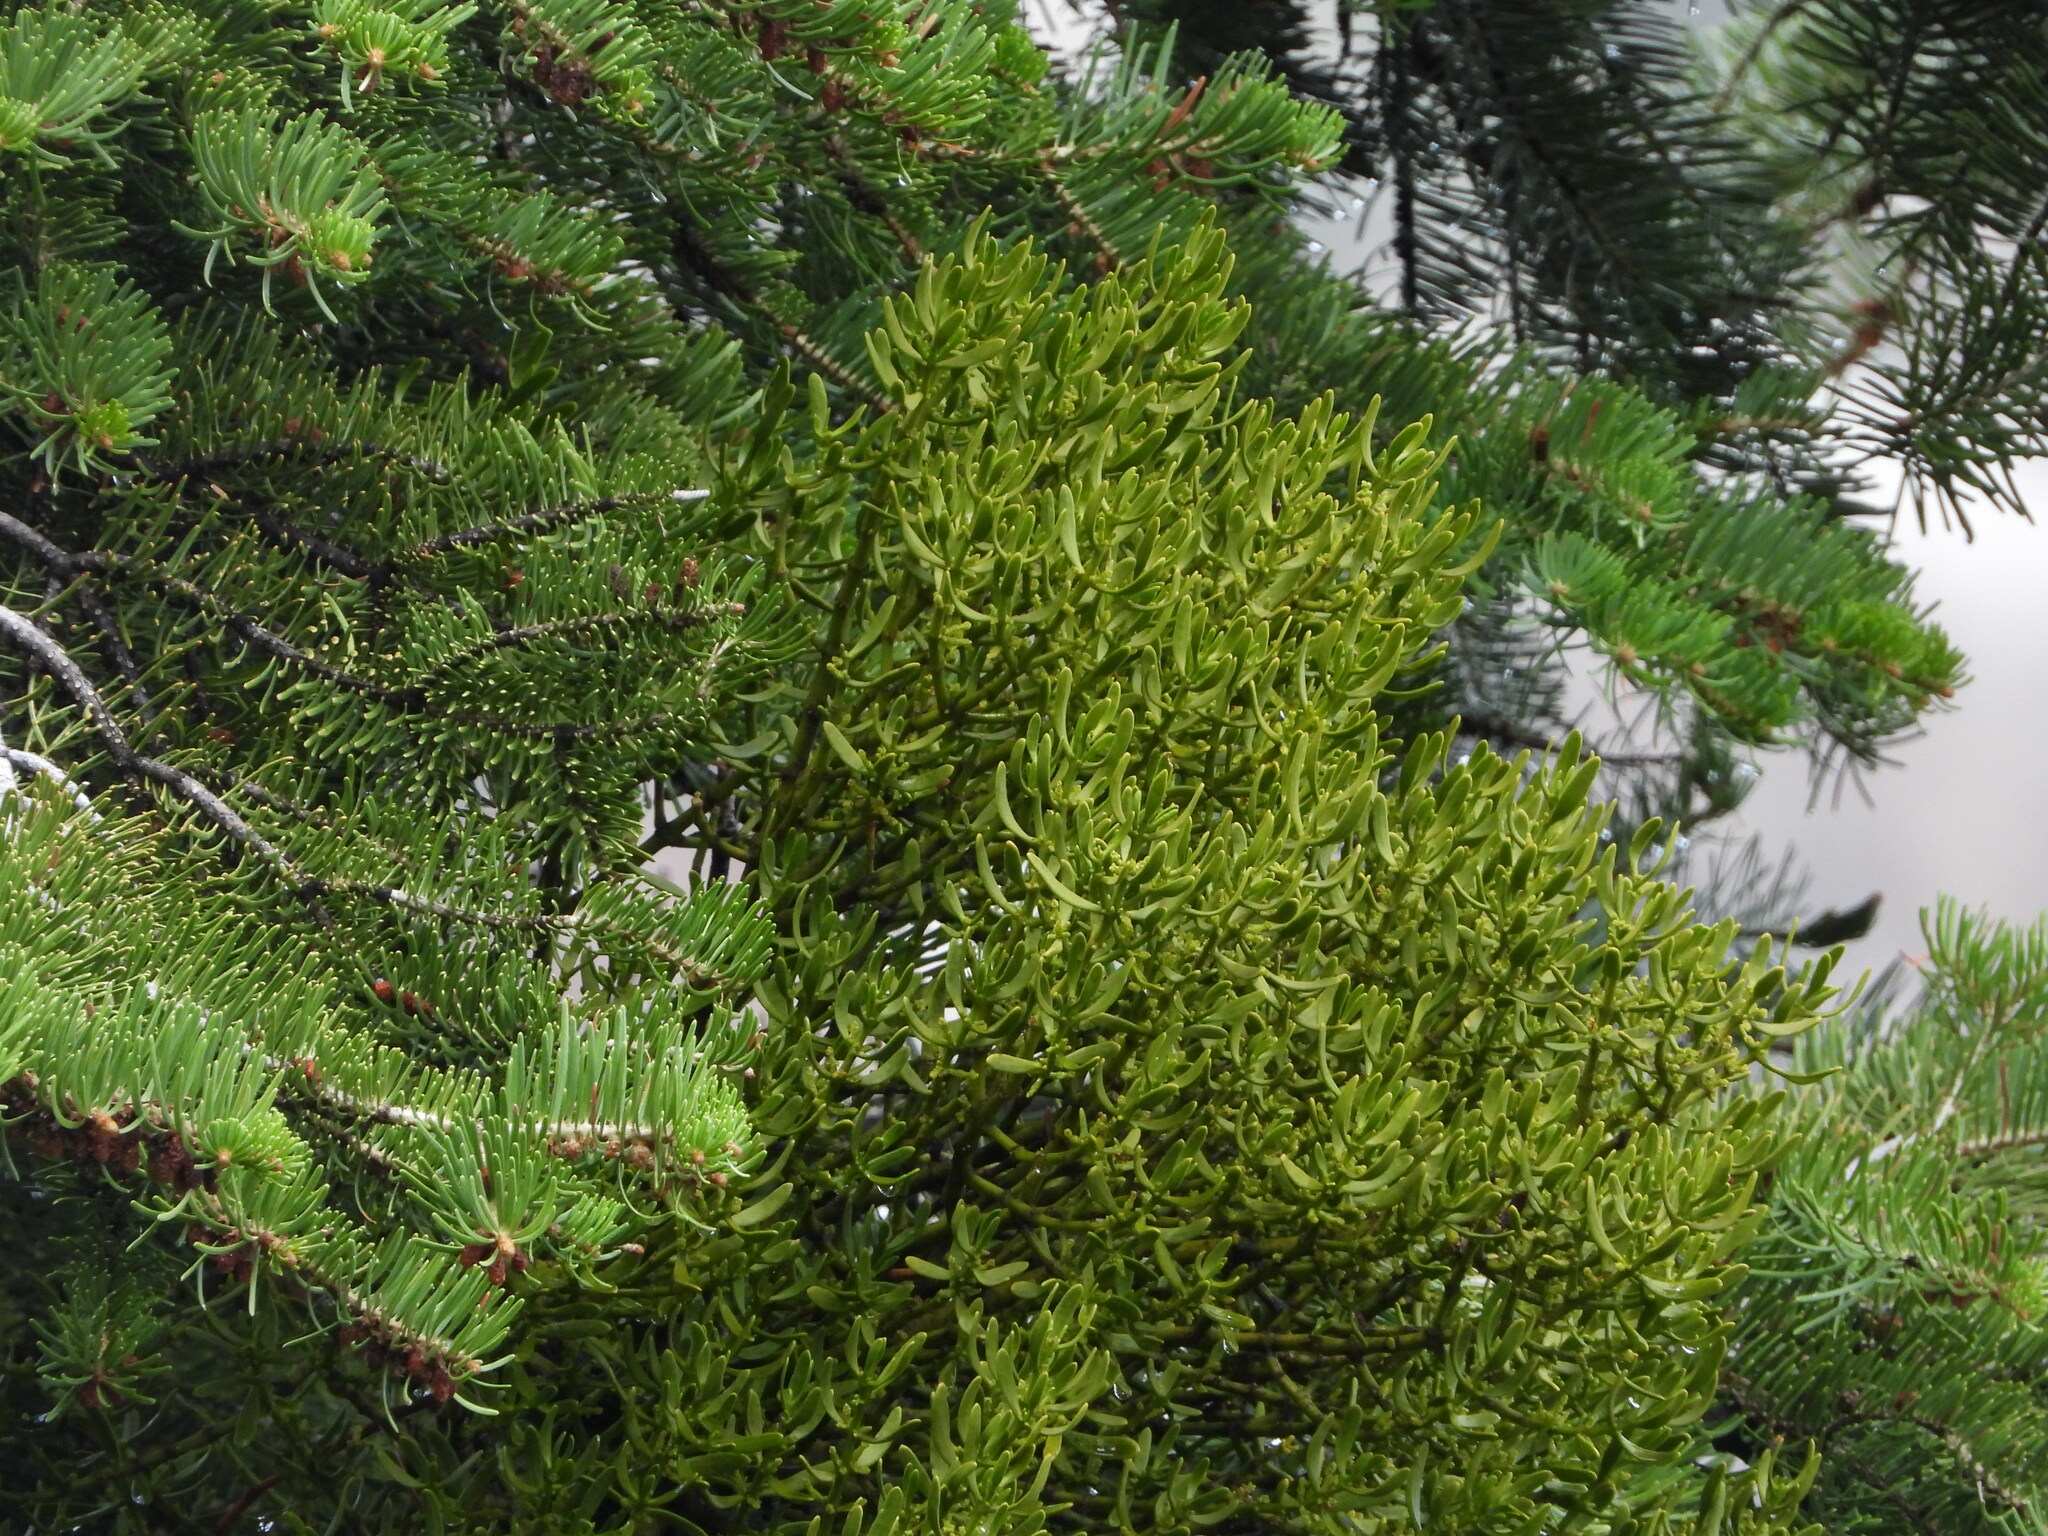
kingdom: Plantae
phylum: Tracheophyta
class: Magnoliopsida
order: Santalales
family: Viscaceae
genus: Phoradendron
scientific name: Phoradendron pauciflorum
